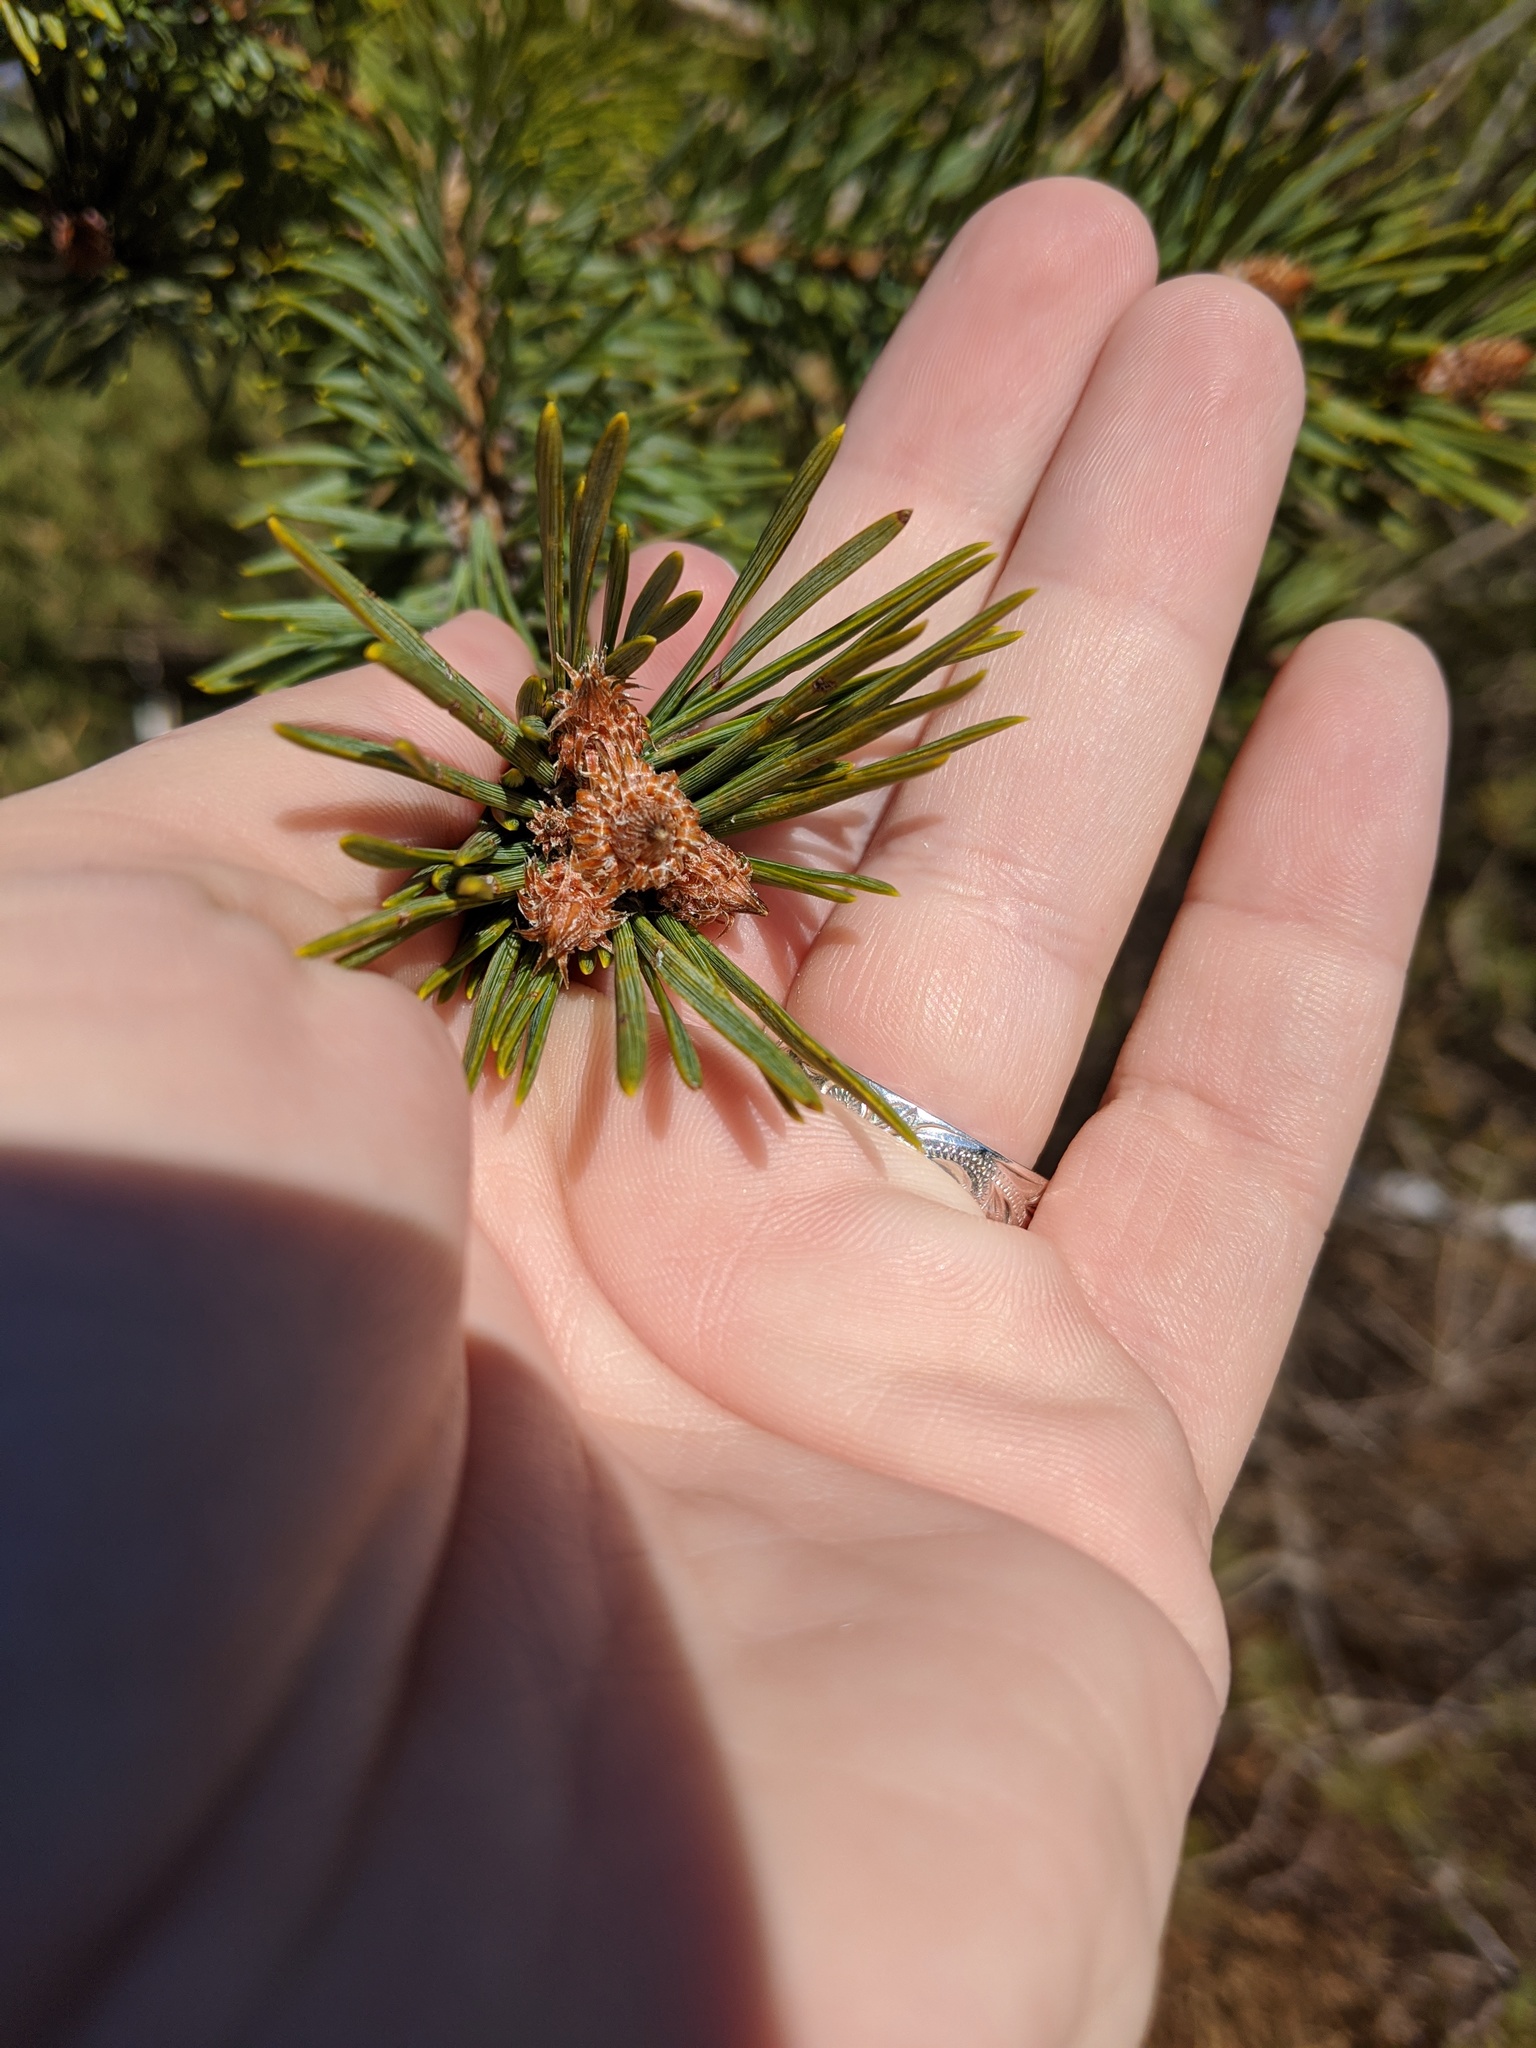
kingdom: Plantae
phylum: Tracheophyta
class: Pinopsida
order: Pinales
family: Pinaceae
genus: Pinus
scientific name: Pinus sylvestris
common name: Scots pine
